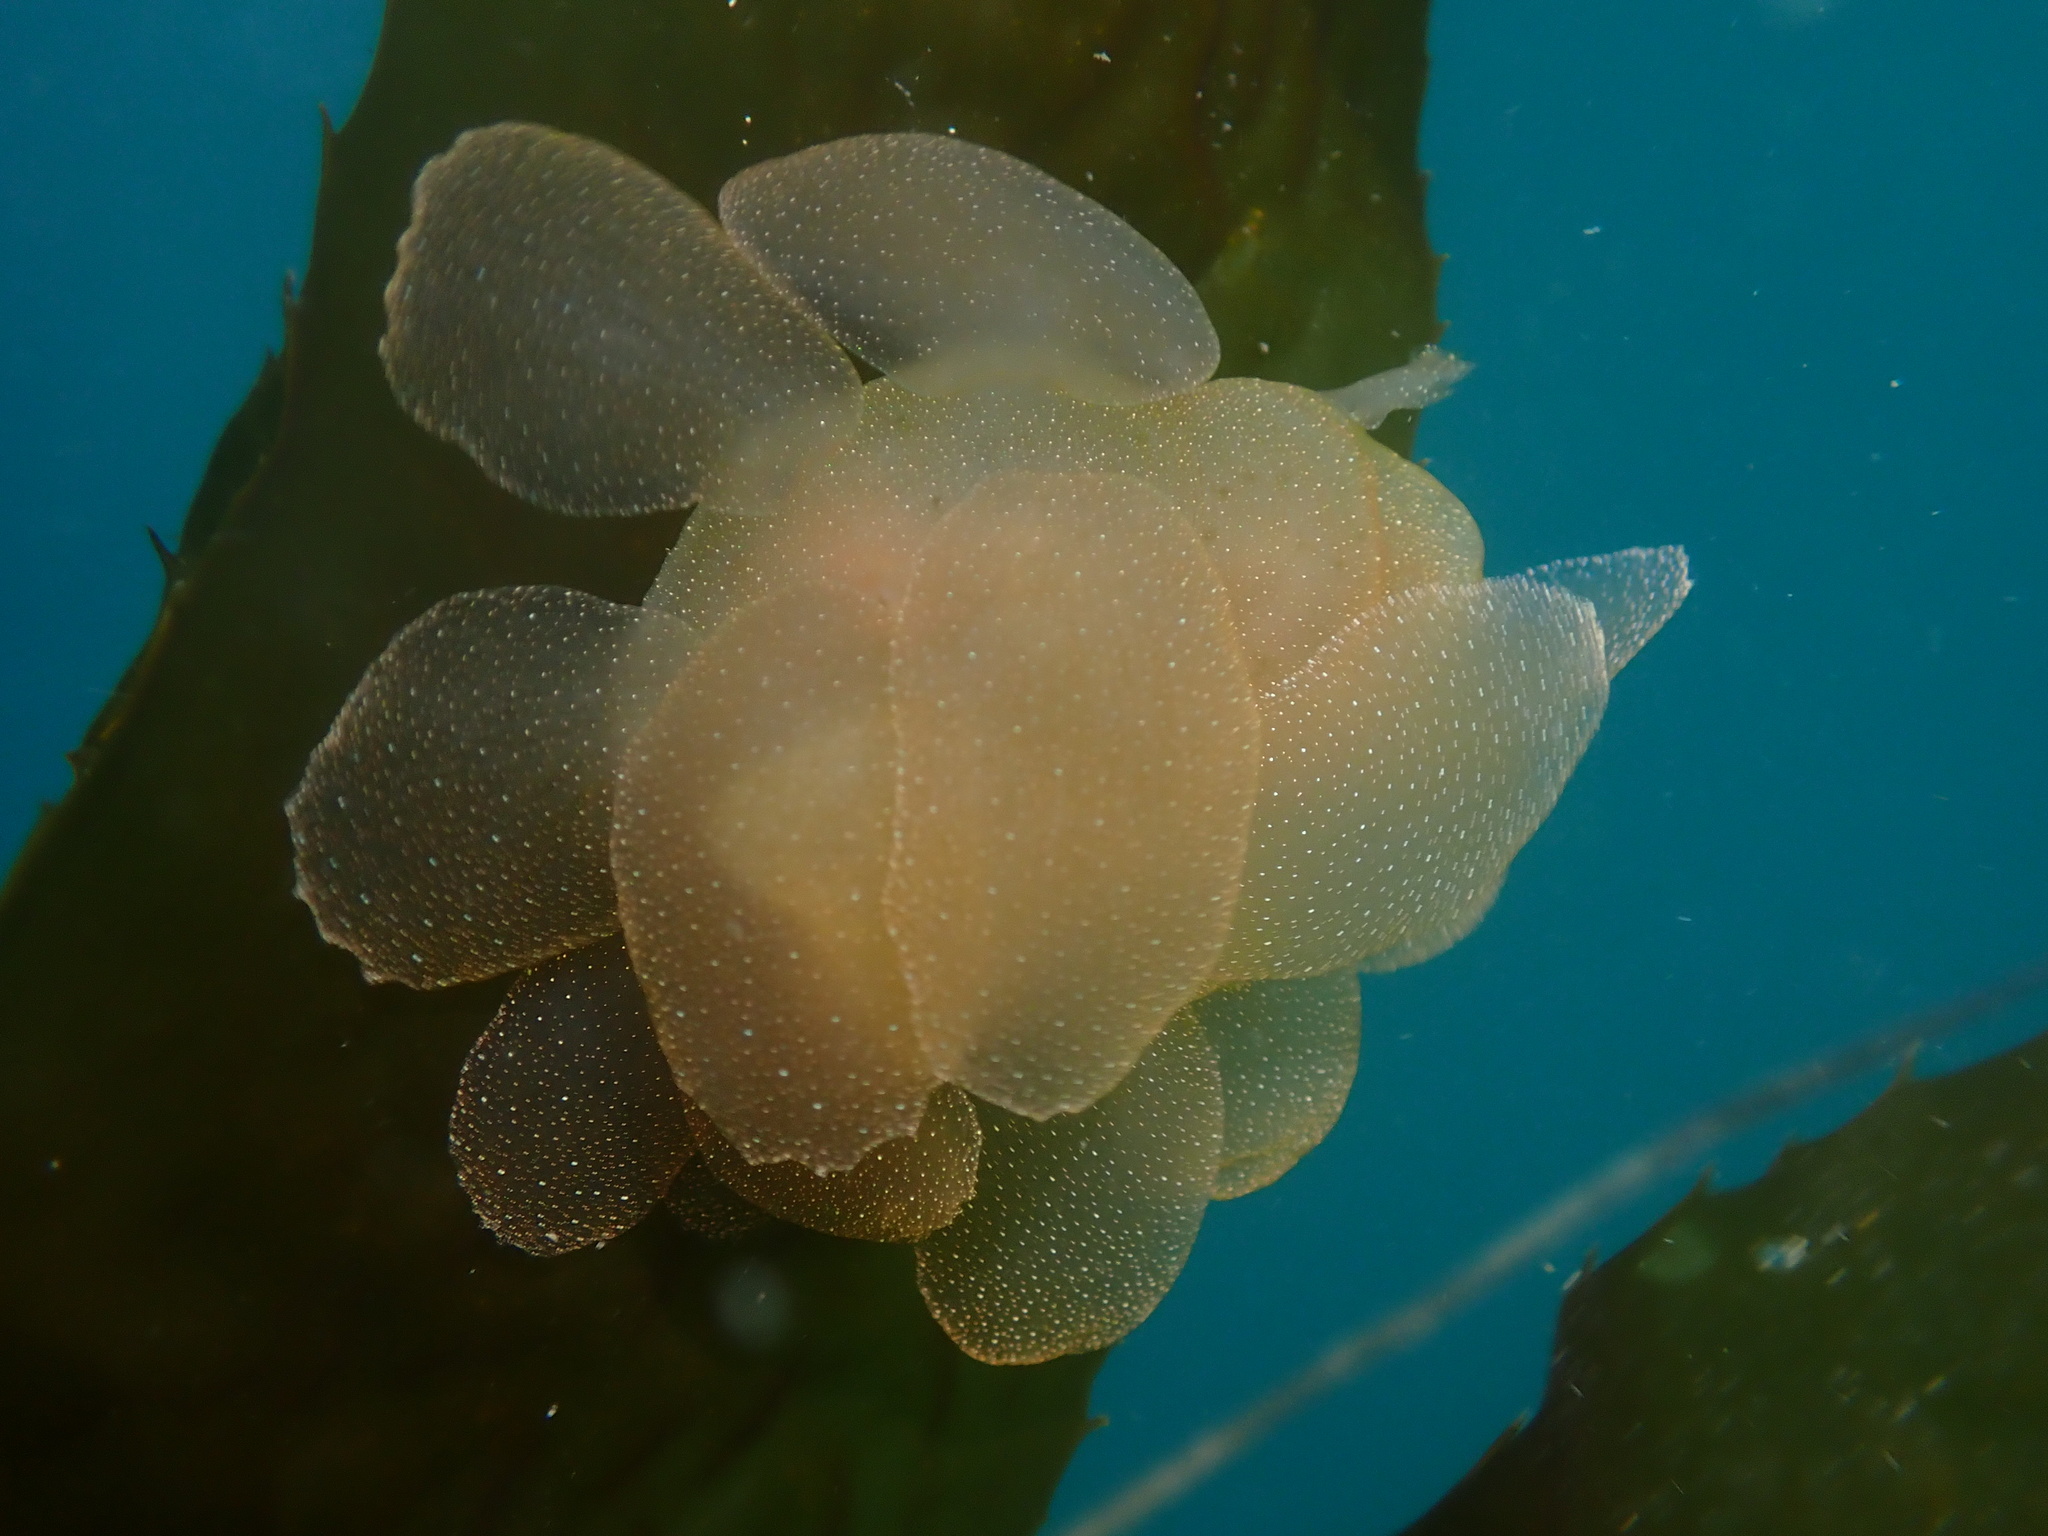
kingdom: Animalia
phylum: Mollusca
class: Gastropoda
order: Nudibranchia
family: Tethydidae
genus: Melibe
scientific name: Melibe leonina
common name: Lion nudibranch
